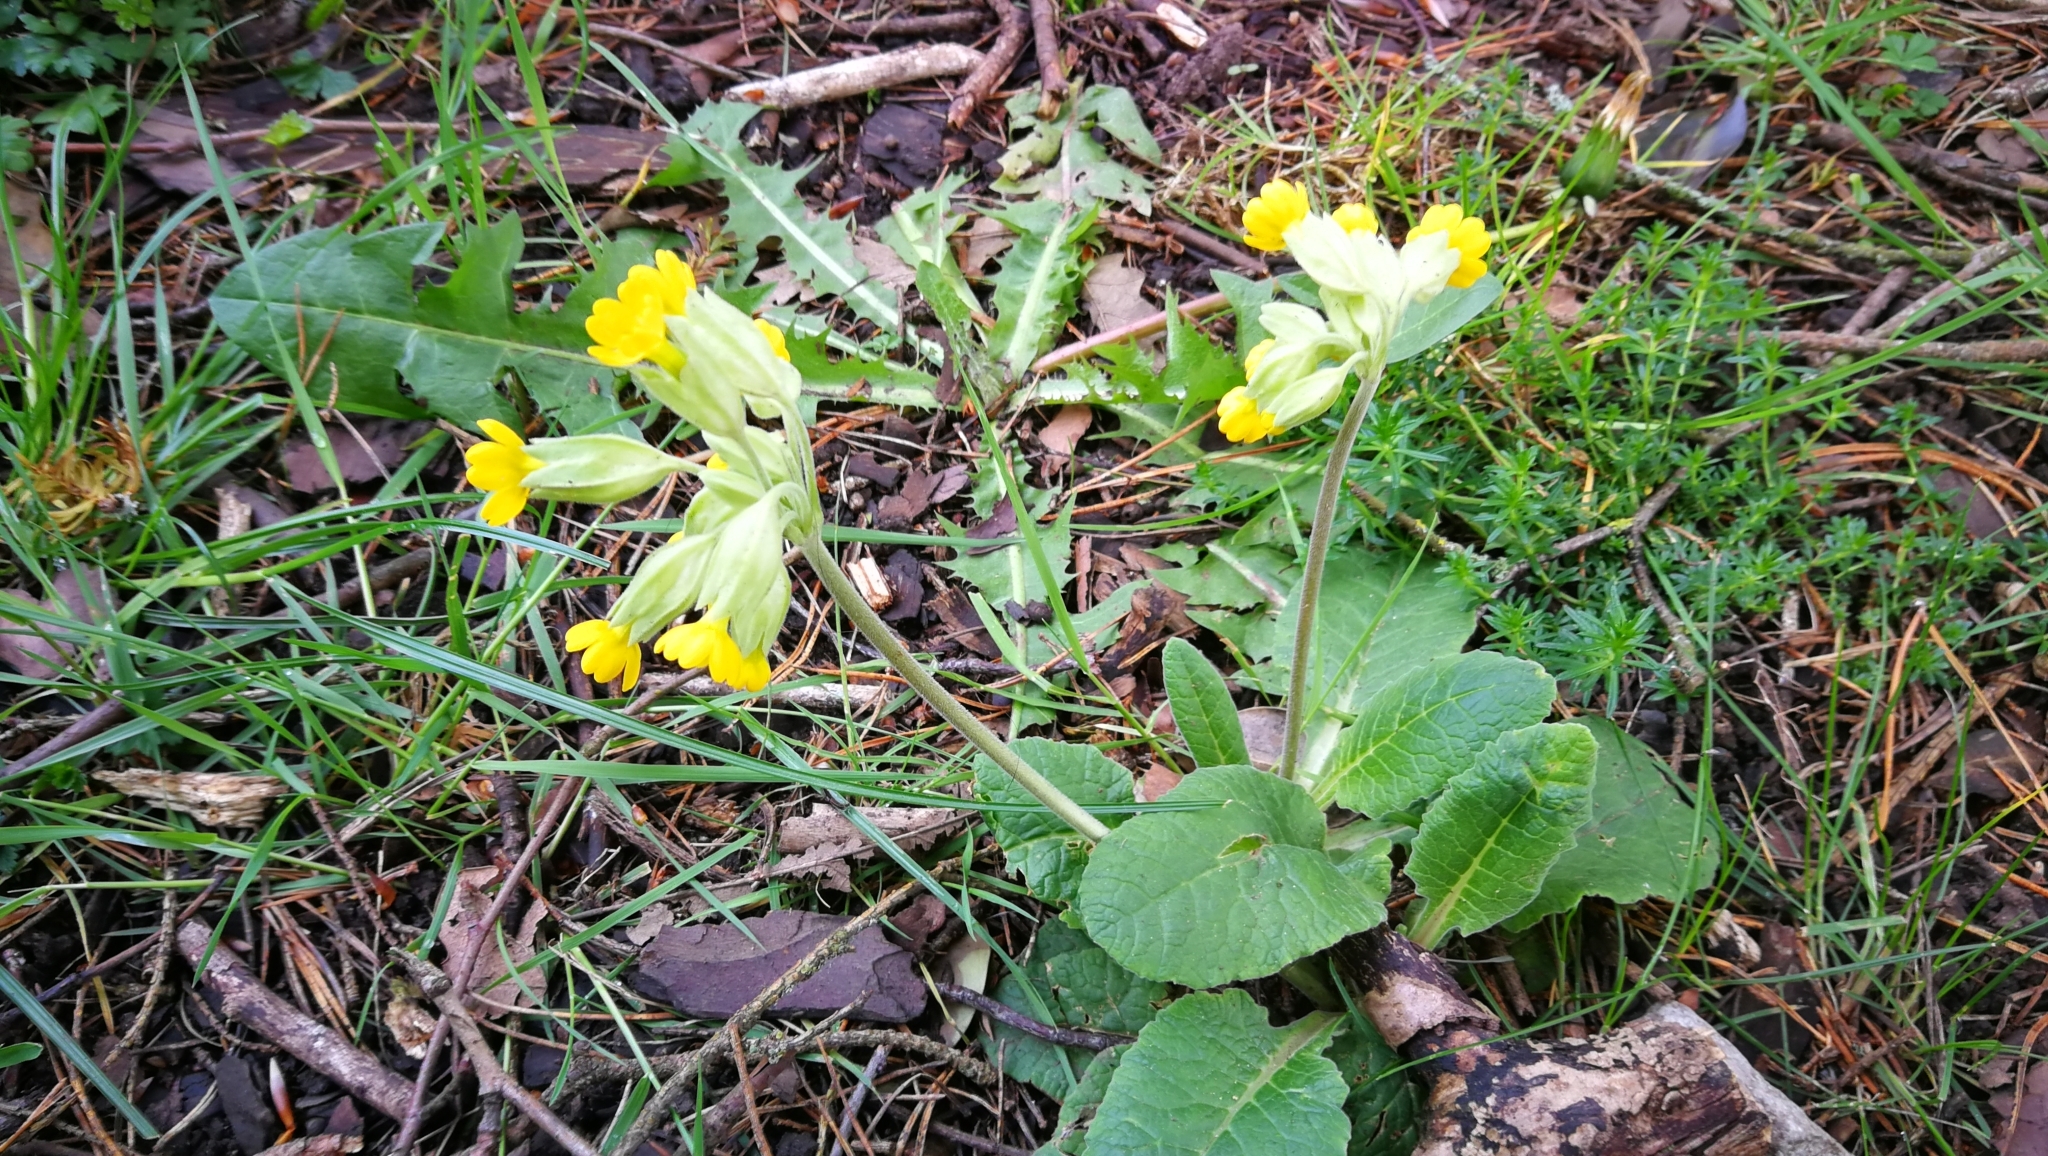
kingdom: Plantae
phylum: Tracheophyta
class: Magnoliopsida
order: Ericales
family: Primulaceae
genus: Primula
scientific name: Primula veris
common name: Cowslip
